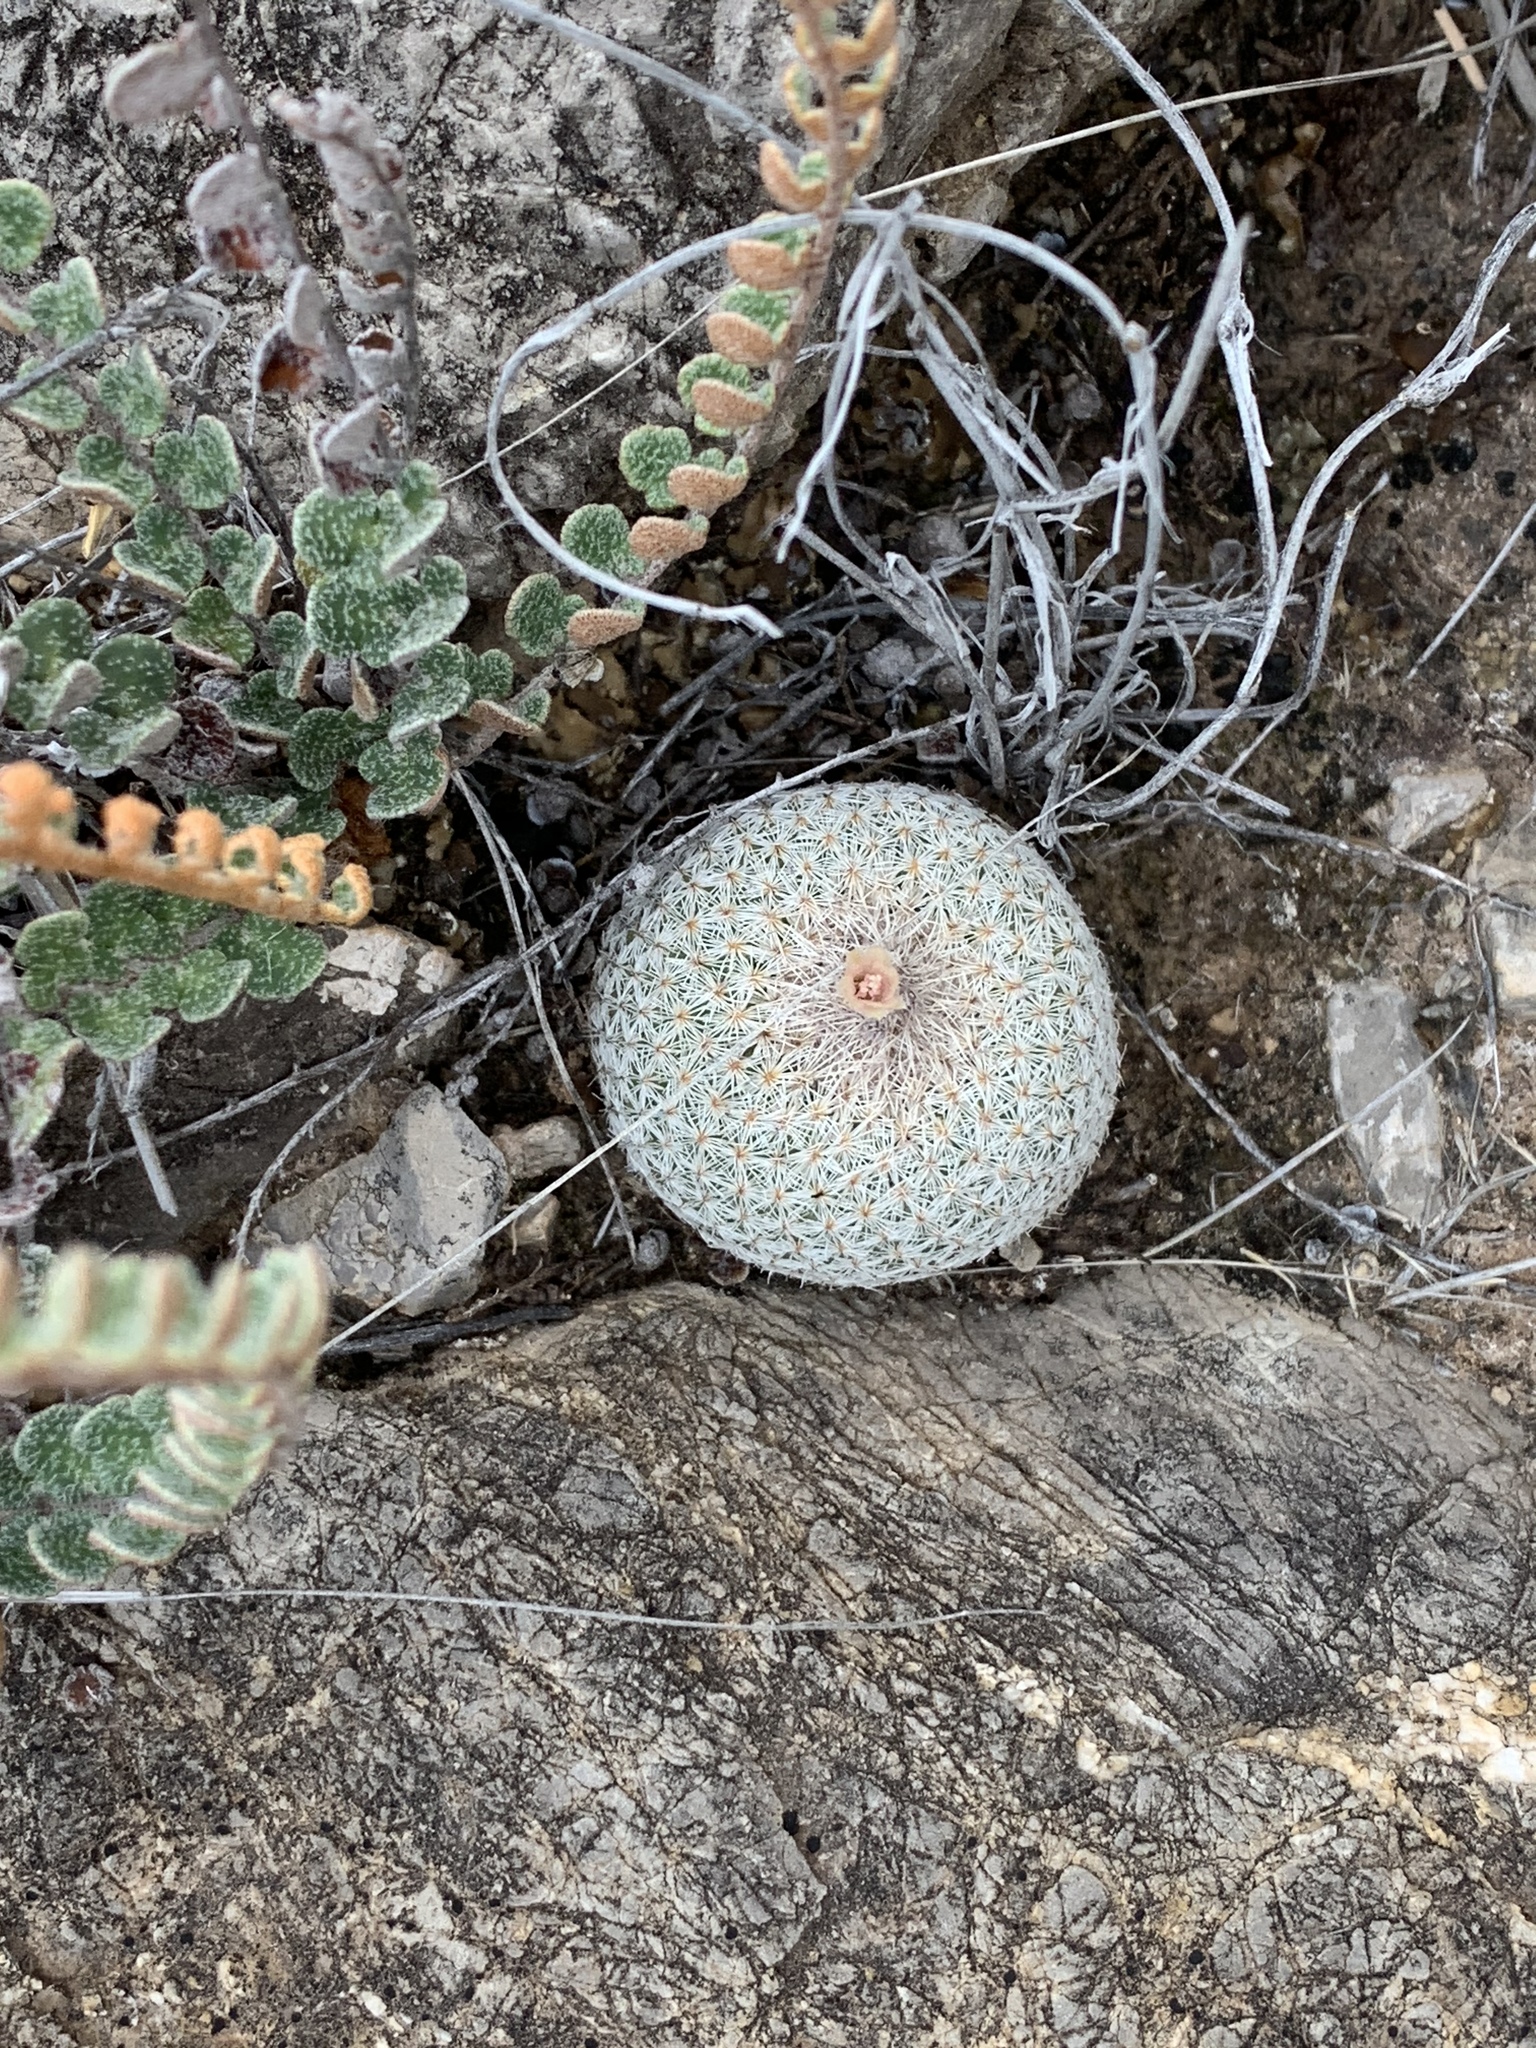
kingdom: Plantae
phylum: Tracheophyta
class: Magnoliopsida
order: Caryophyllales
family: Cactaceae
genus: Epithelantha
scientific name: Epithelantha micromeris
